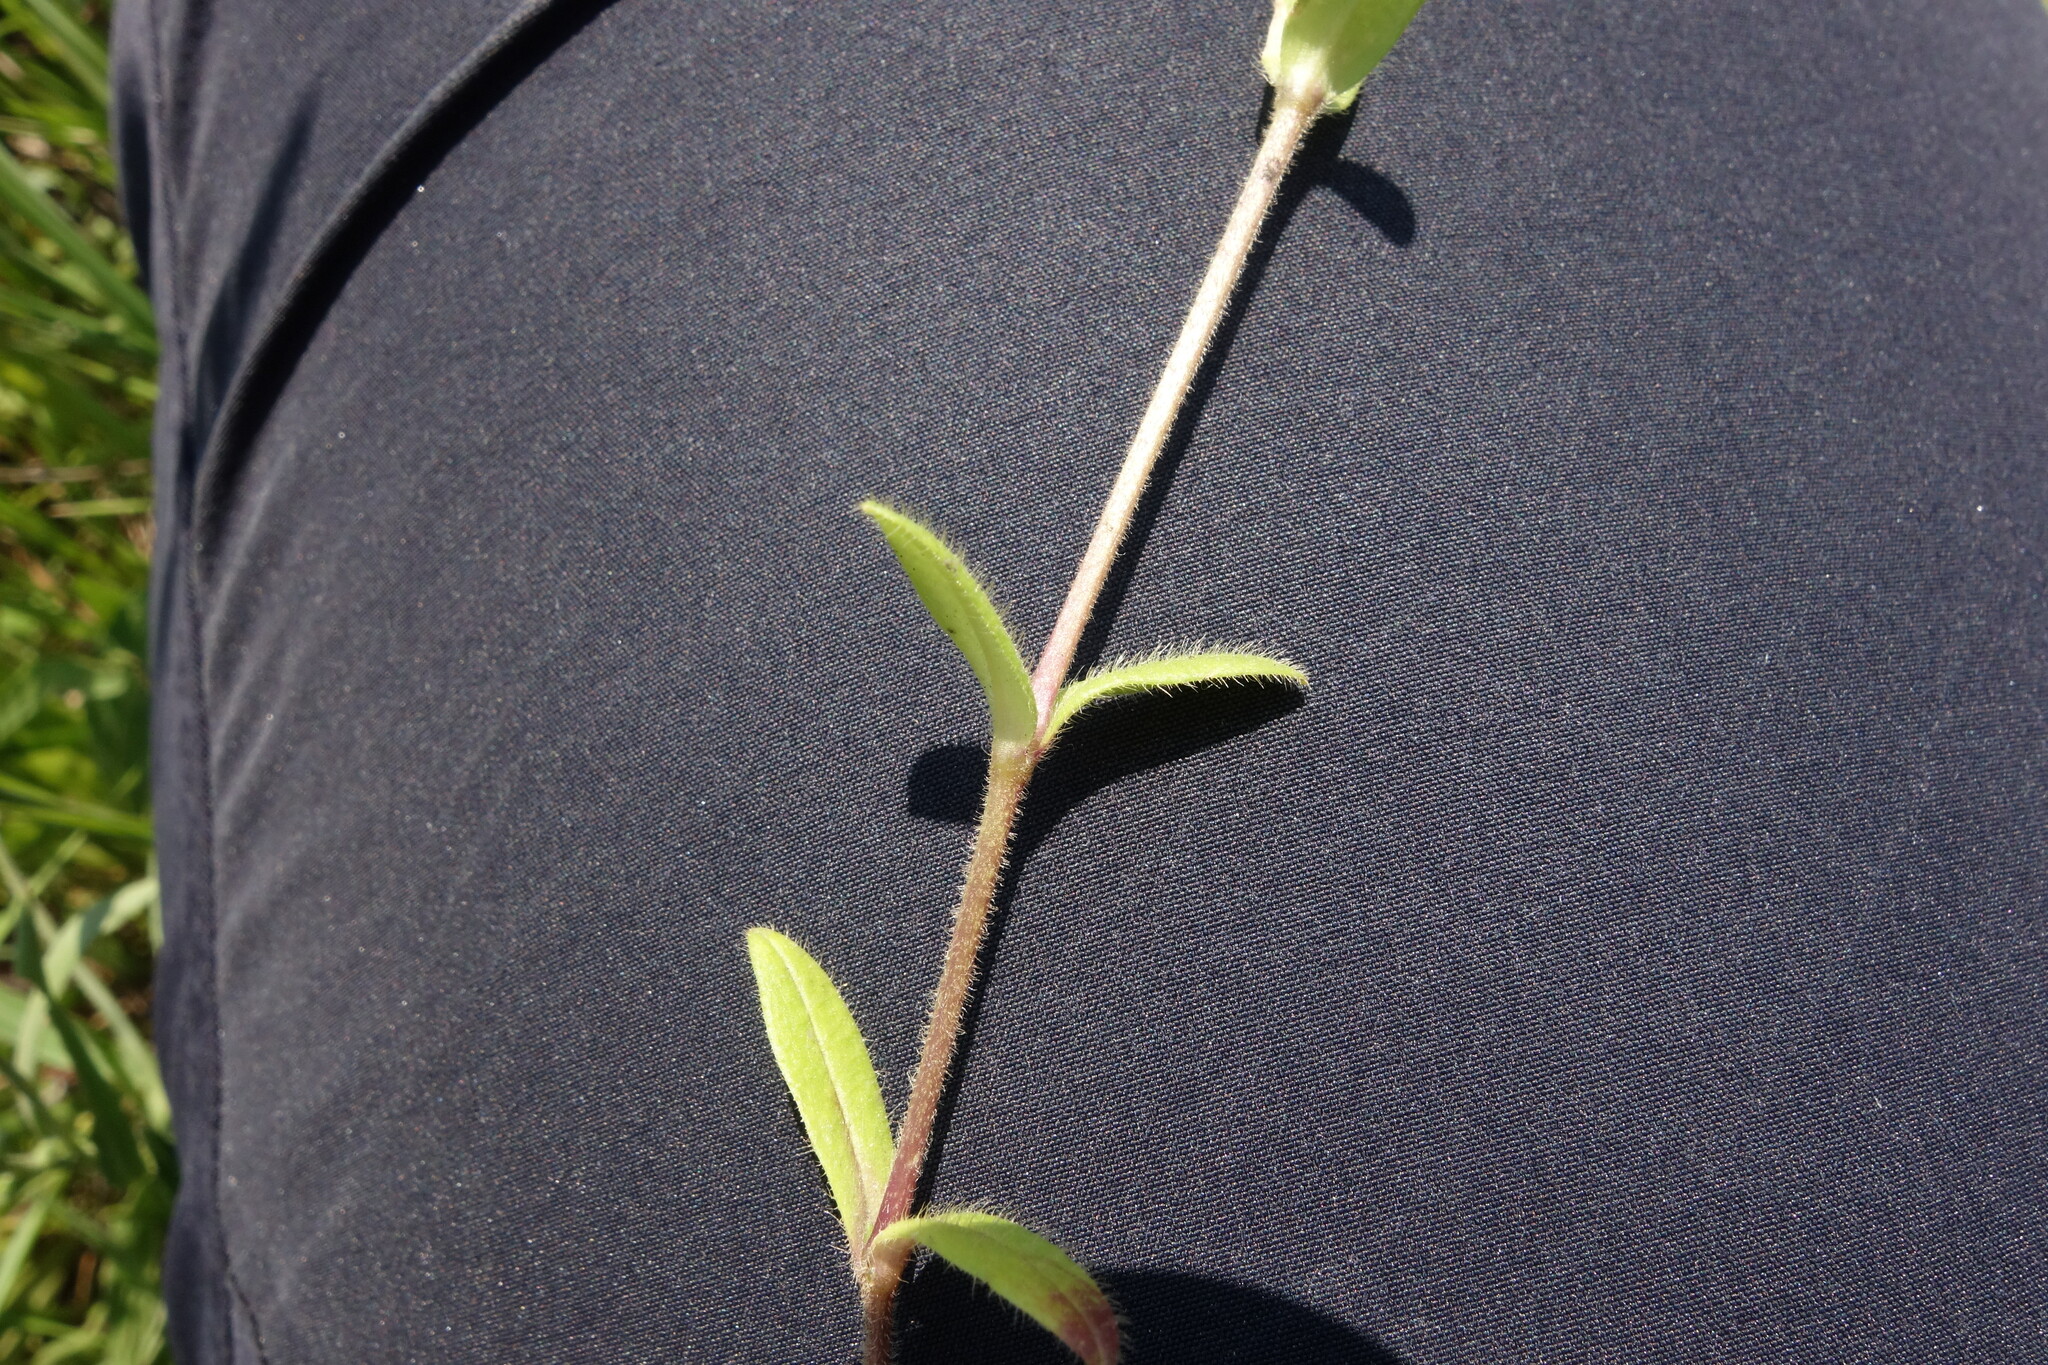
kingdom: Plantae
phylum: Tracheophyta
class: Magnoliopsida
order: Caryophyllales
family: Caryophyllaceae
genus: Cerastium
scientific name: Cerastium holosteoides
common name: Big chickweed
